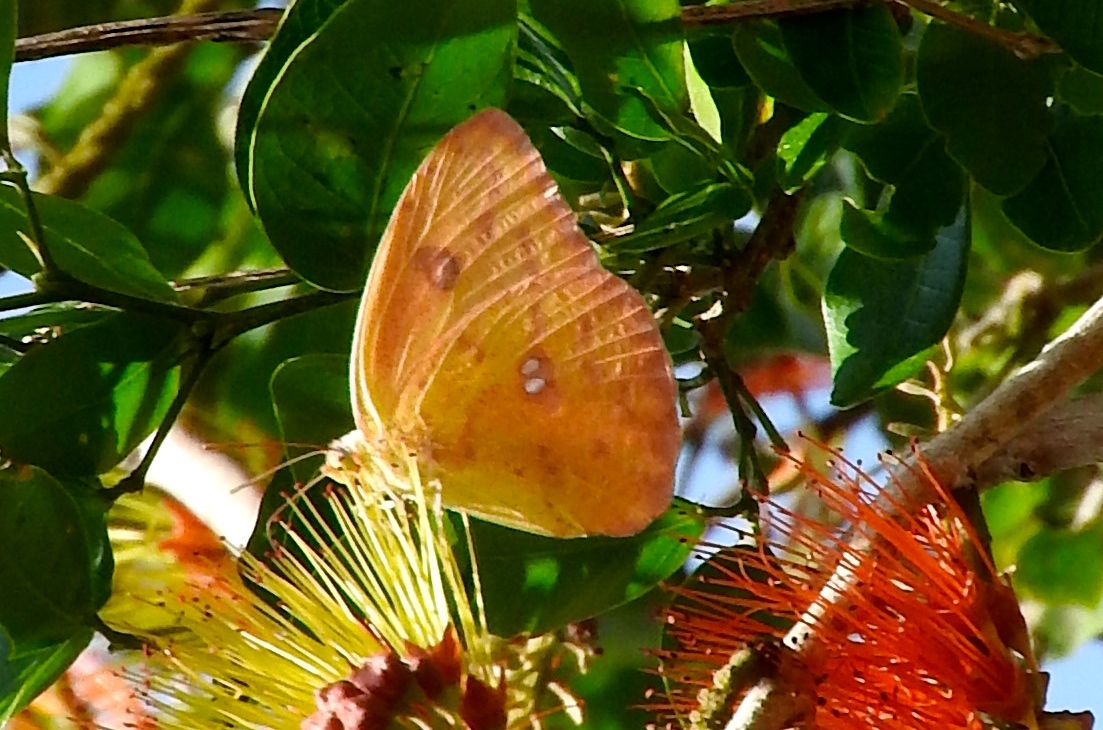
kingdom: Animalia
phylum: Arthropoda
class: Insecta
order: Lepidoptera
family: Pieridae
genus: Phoebis
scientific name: Phoebis philea
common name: Orange-barred giant sulphur
